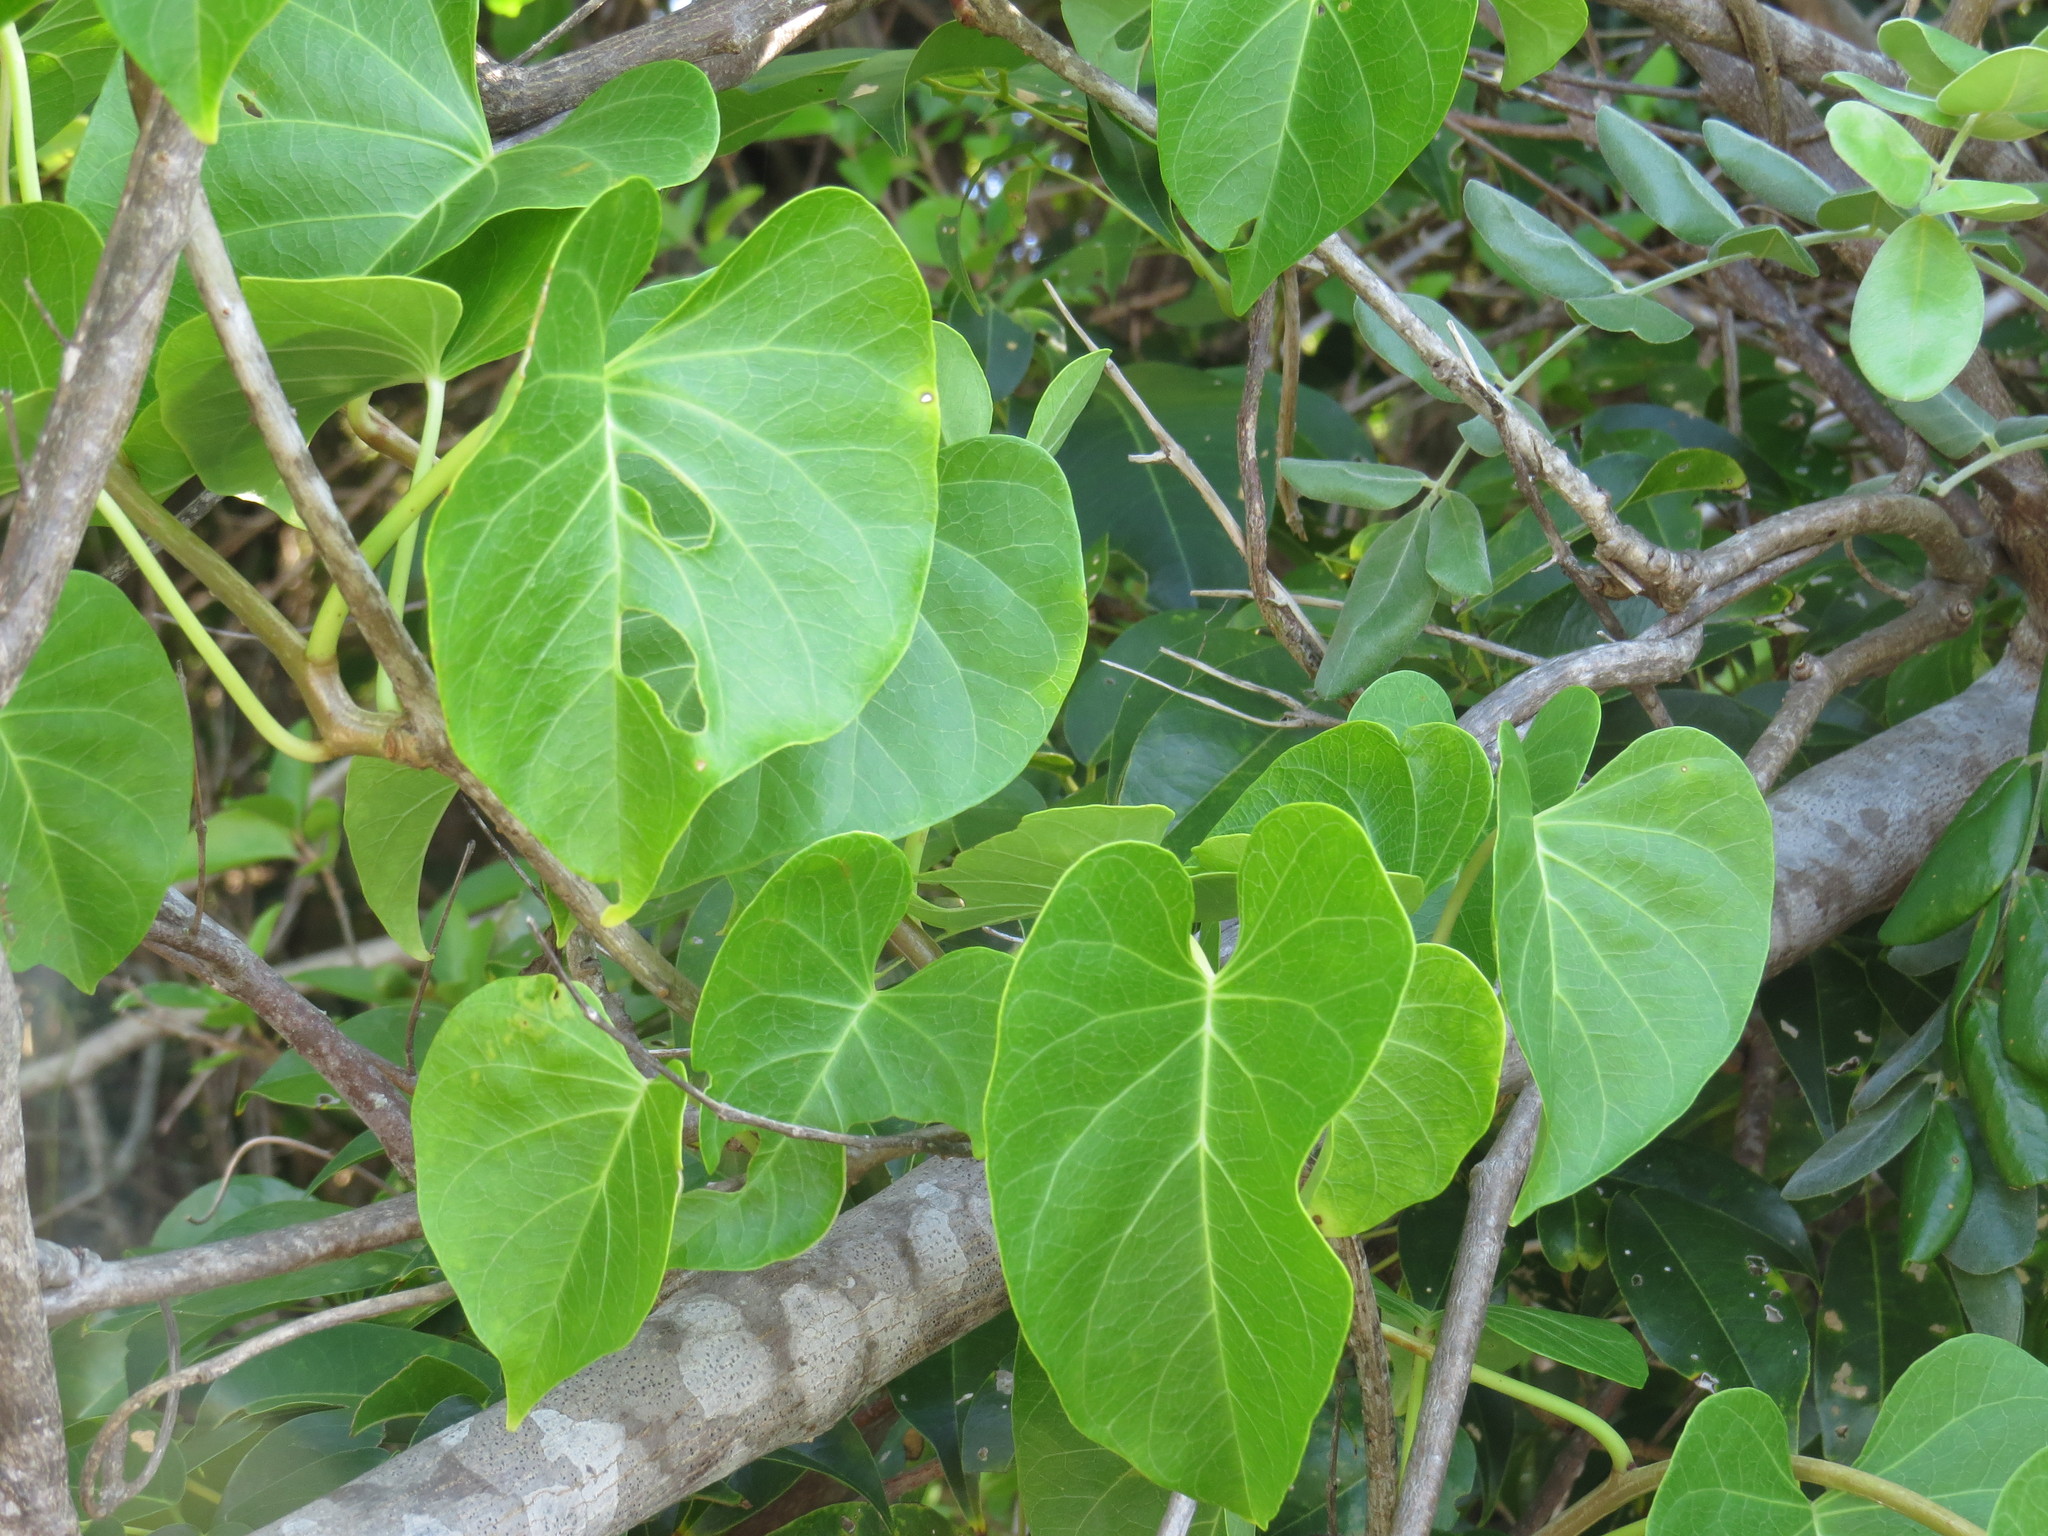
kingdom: Plantae
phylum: Tracheophyta
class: Magnoliopsida
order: Solanales
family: Convolvulaceae
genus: Ipomoea
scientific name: Ipomoea violacea
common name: Beach moonflower
